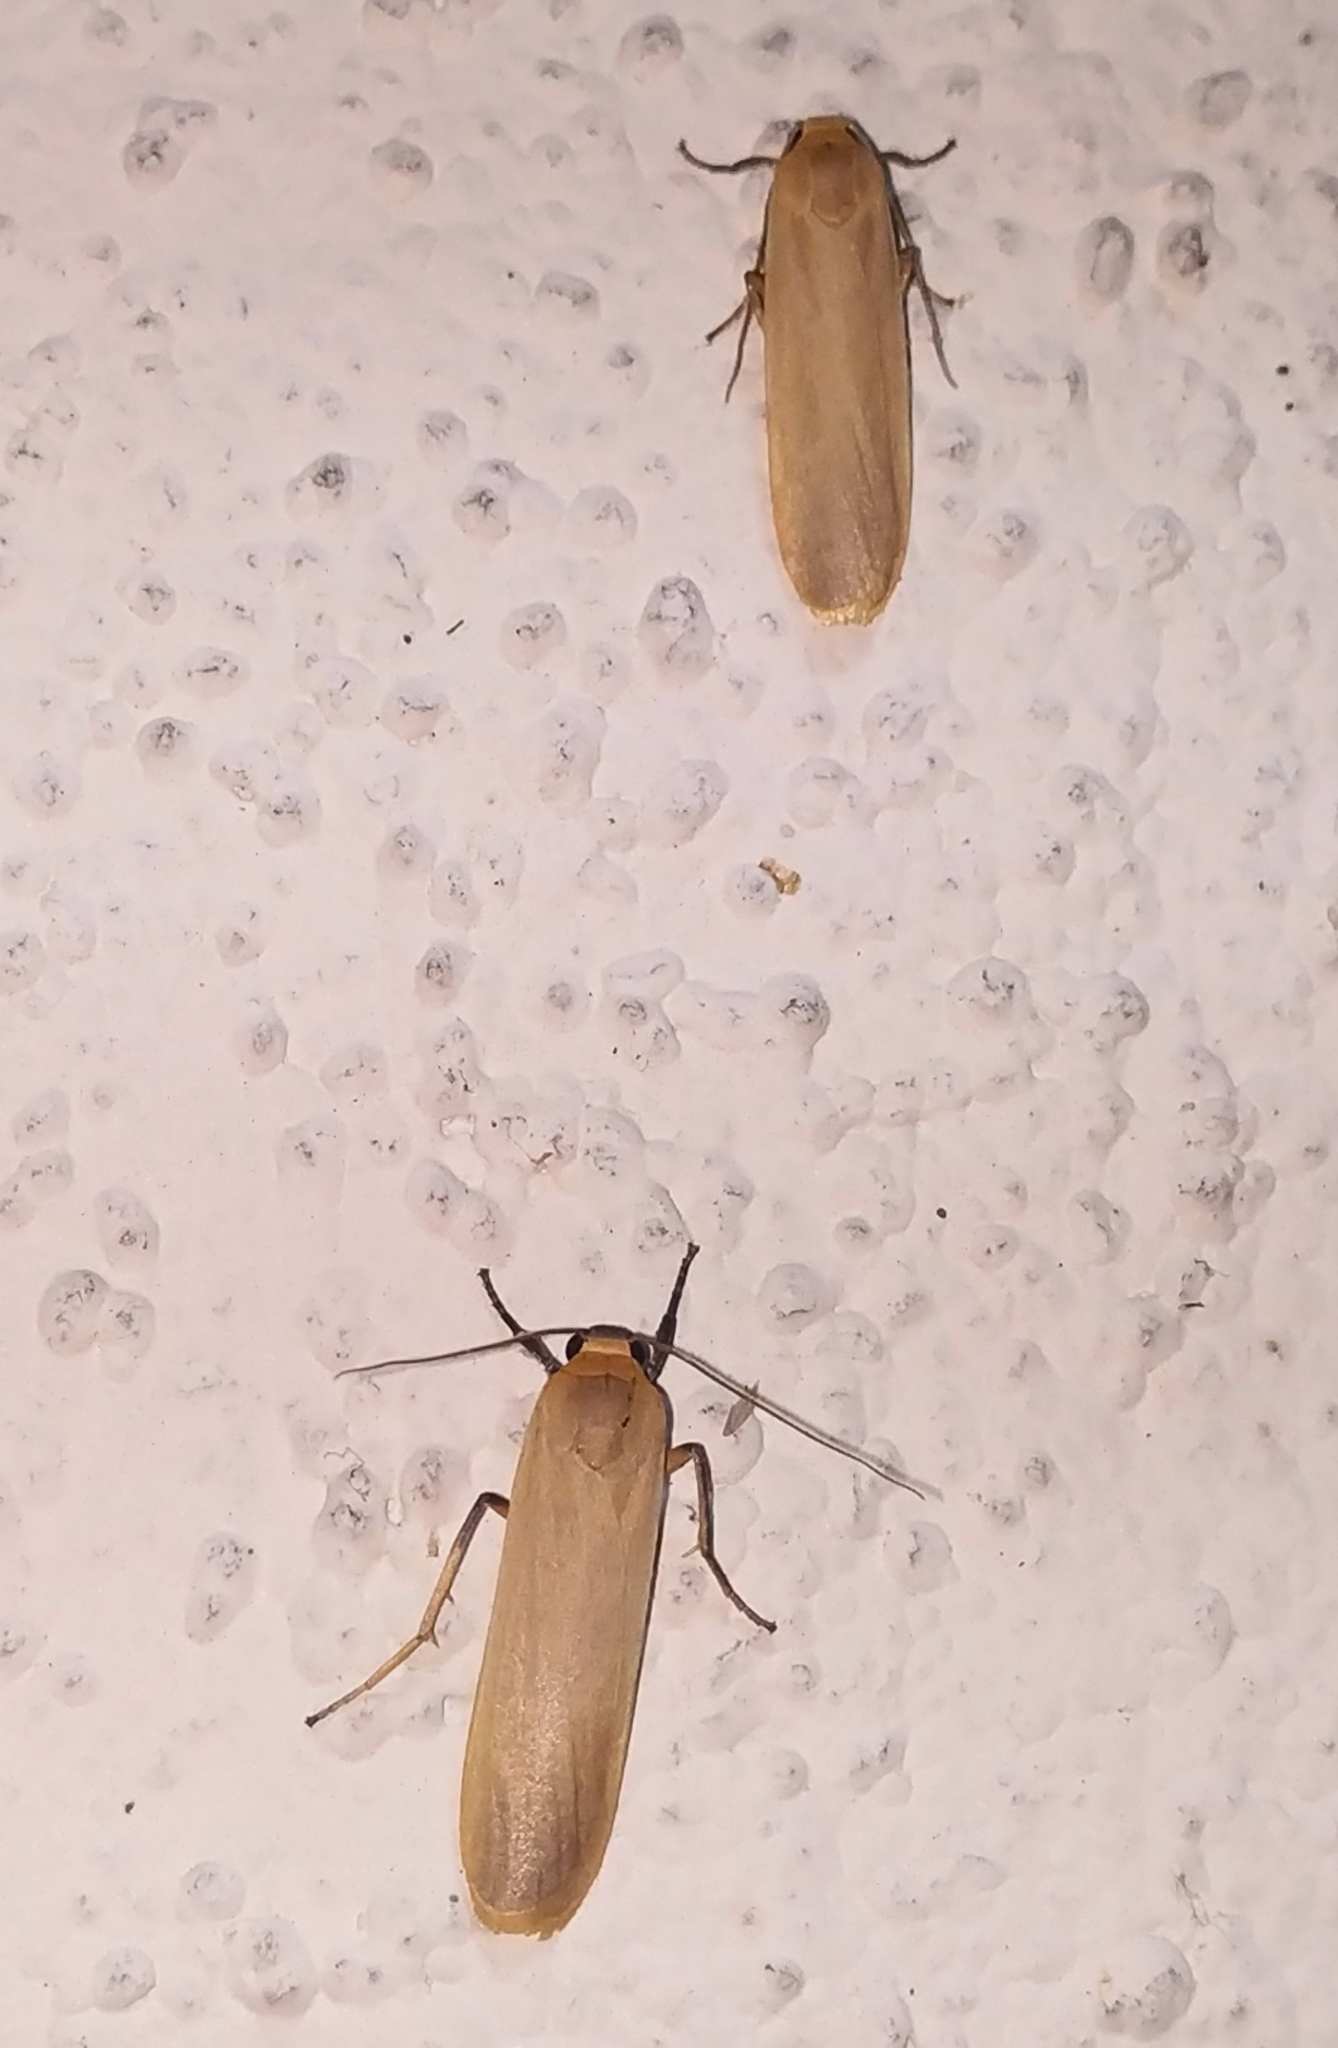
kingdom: Animalia
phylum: Arthropoda
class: Insecta
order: Lepidoptera
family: Erebidae
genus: Brunia
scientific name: Brunia antica
